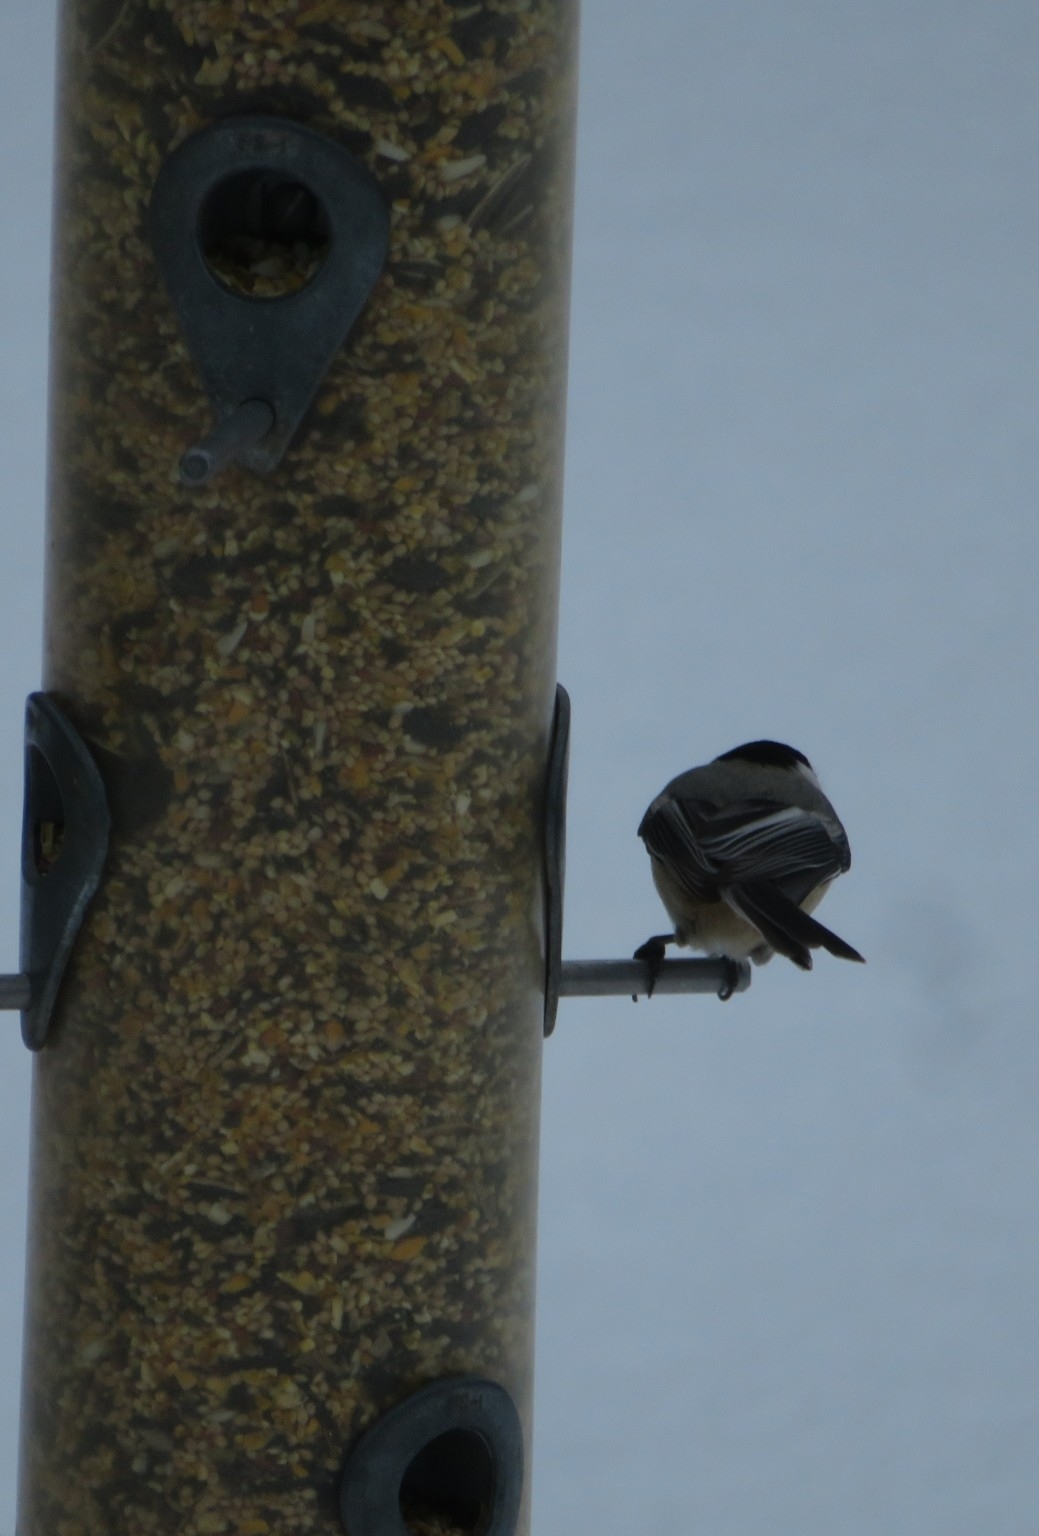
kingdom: Animalia
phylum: Chordata
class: Aves
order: Passeriformes
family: Paridae
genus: Poecile
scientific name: Poecile atricapillus
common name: Black-capped chickadee
